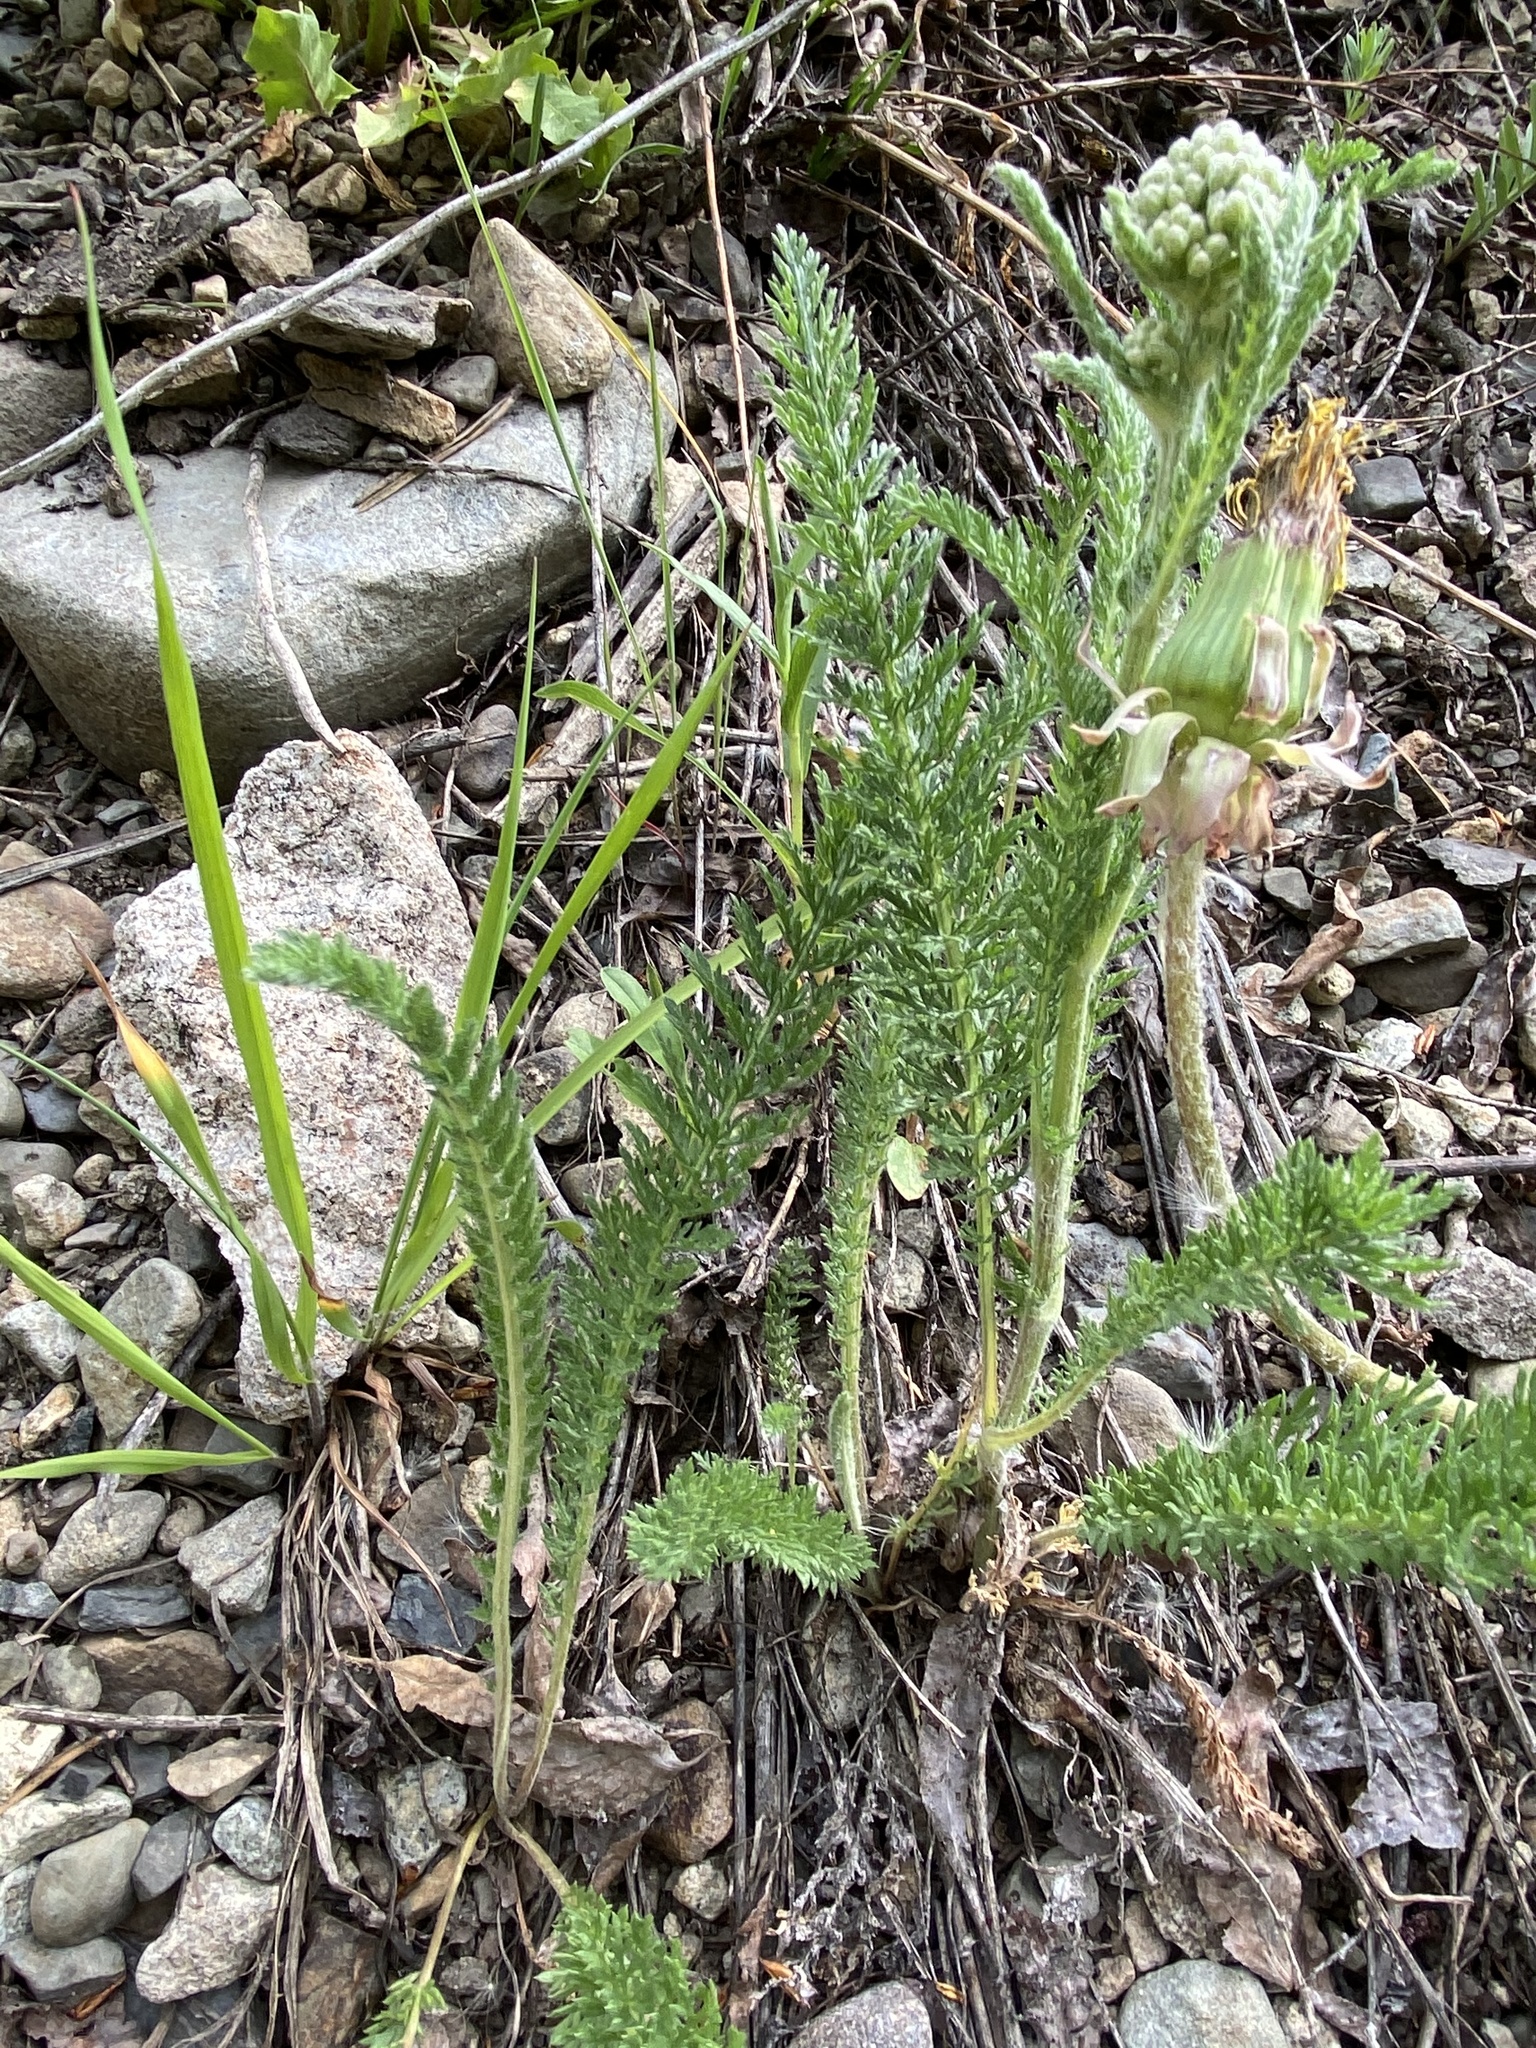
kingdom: Plantae
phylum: Tracheophyta
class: Magnoliopsida
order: Asterales
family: Asteraceae
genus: Achillea
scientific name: Achillea millefolium
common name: Yarrow
